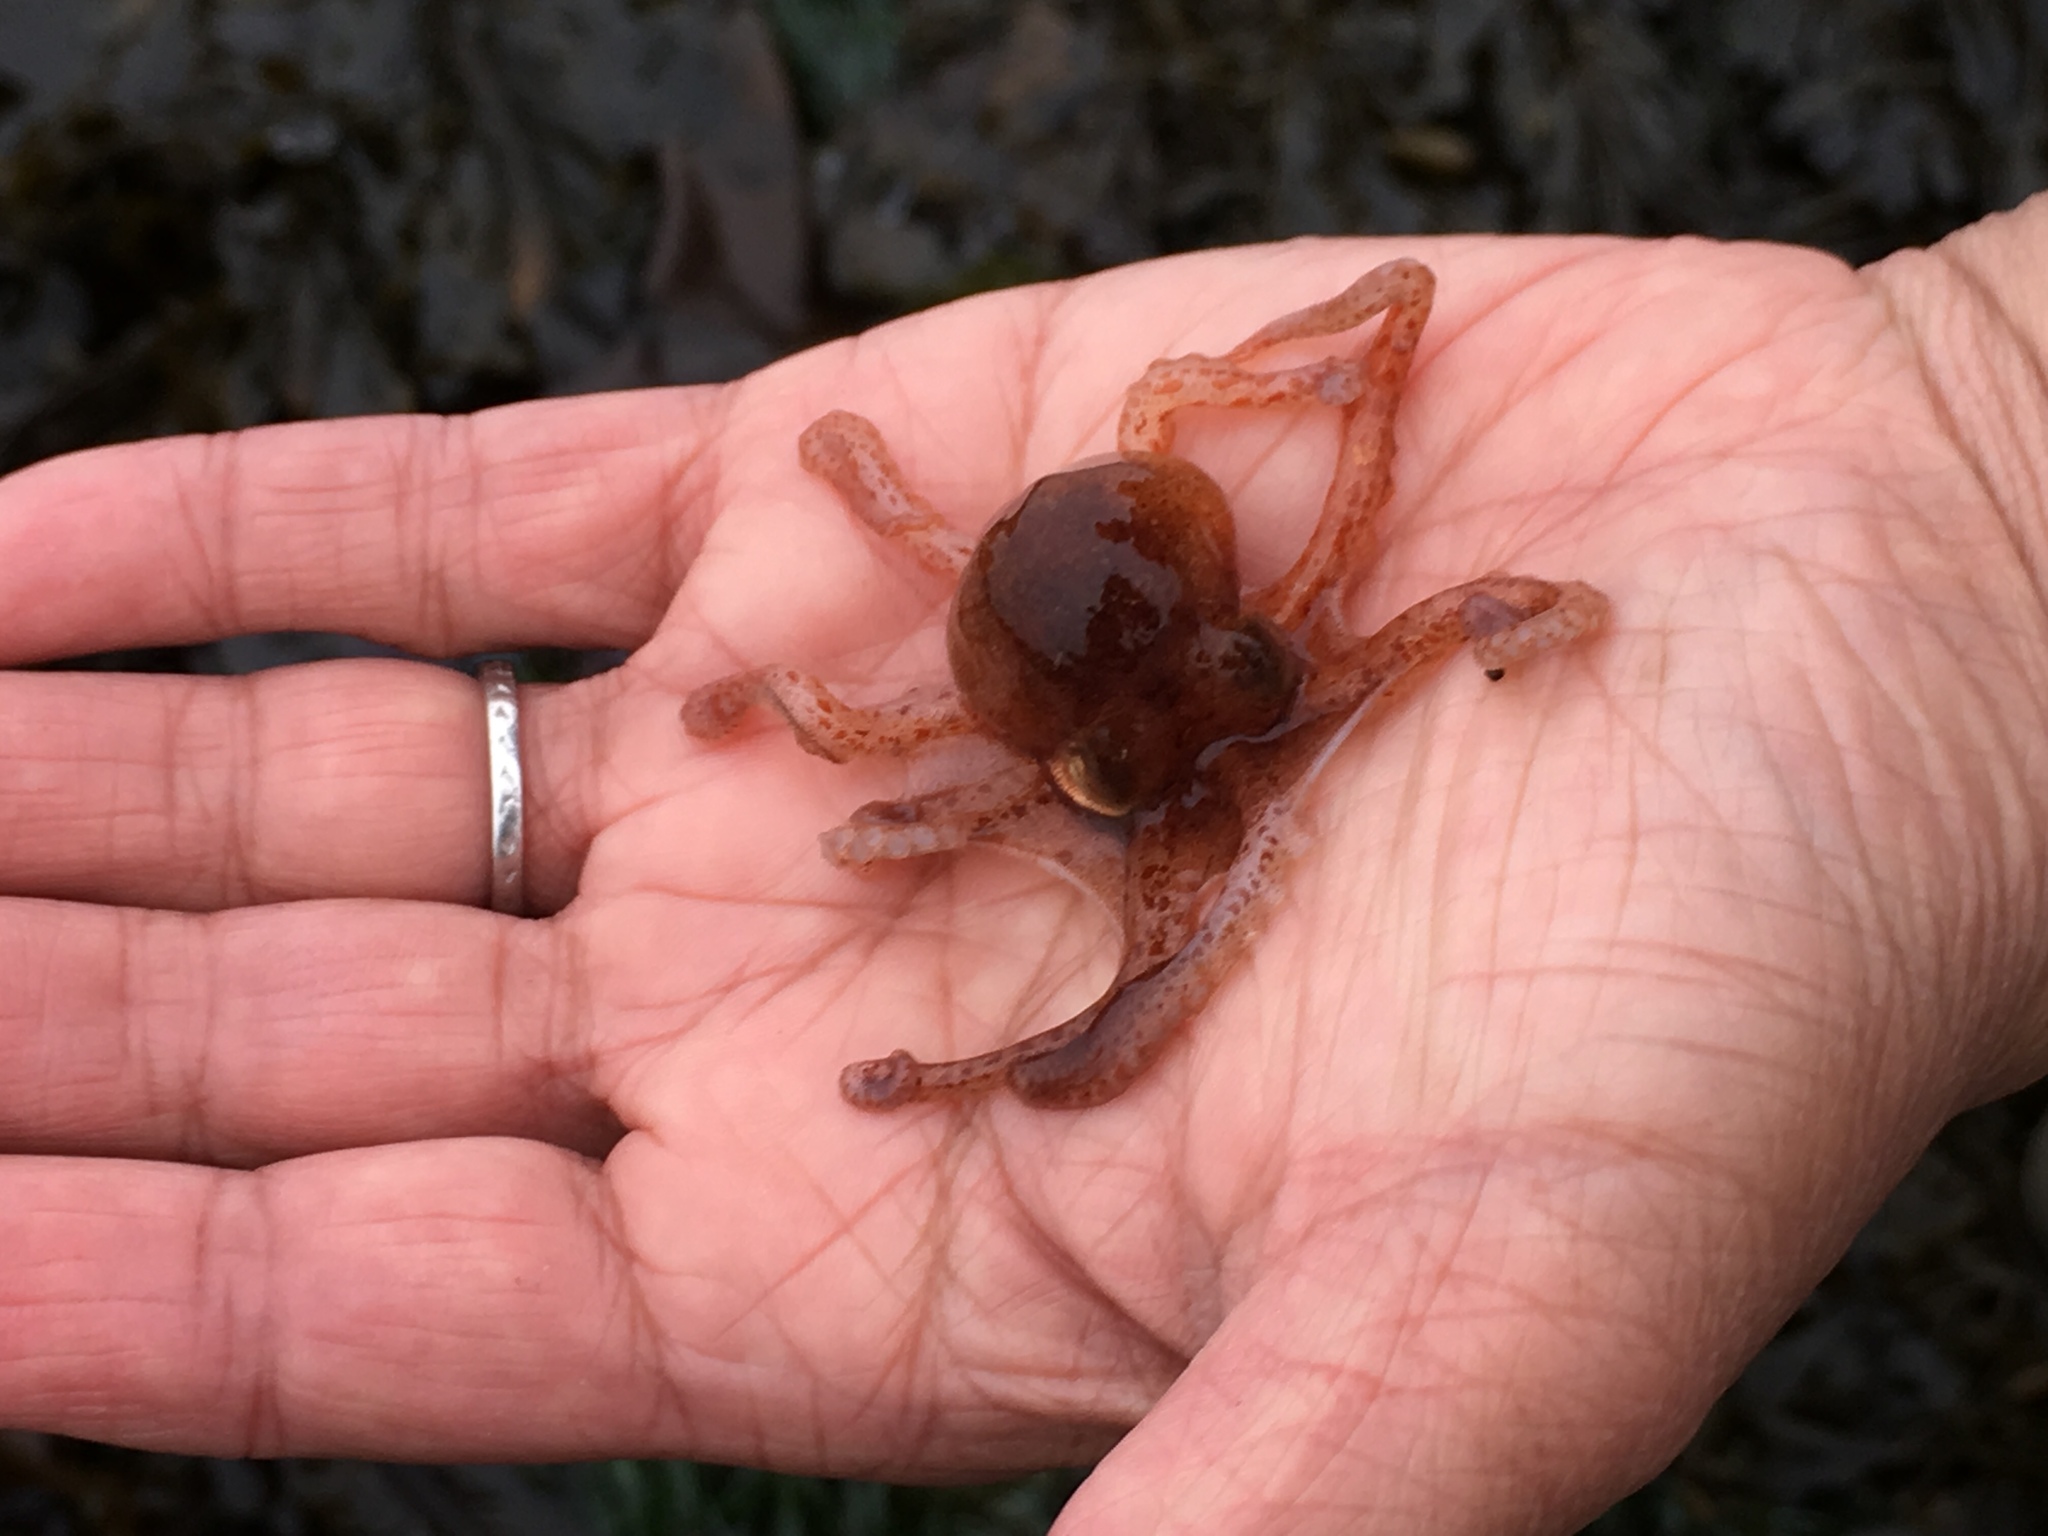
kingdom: Animalia
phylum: Mollusca
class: Cephalopoda
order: Octopoda
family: Octopodidae
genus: Octopus
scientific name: Octopus rubescens
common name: East pacific red octopus
